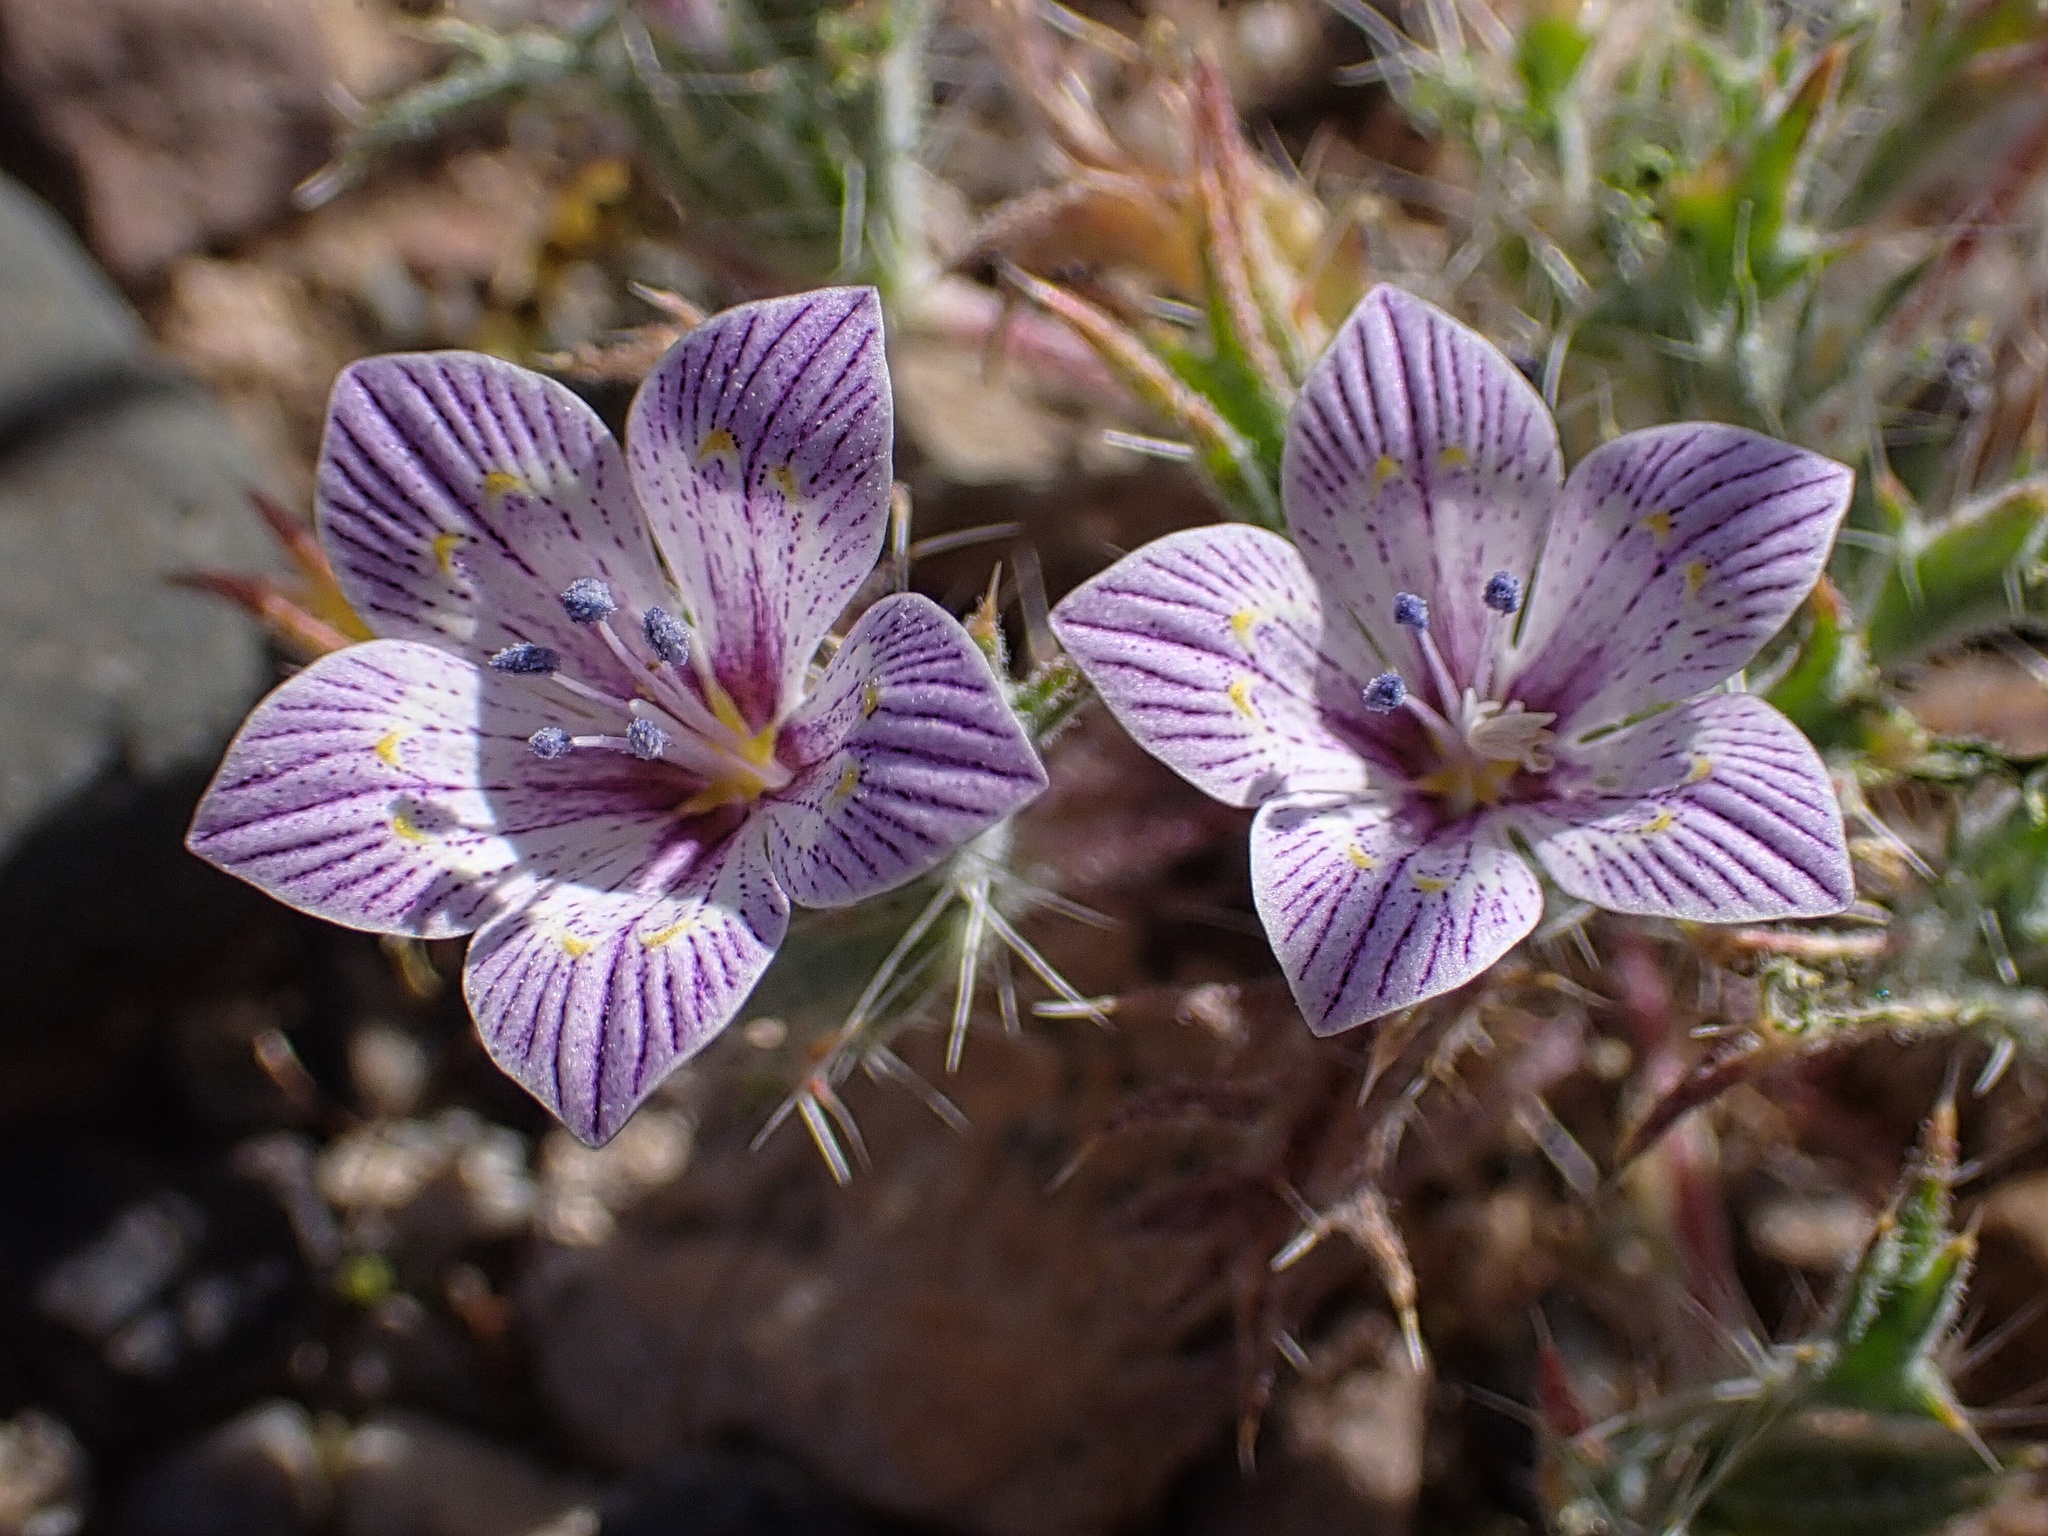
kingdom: Plantae
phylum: Tracheophyta
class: Magnoliopsida
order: Ericales
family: Polemoniaceae
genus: Langloisia
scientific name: Langloisia setosissima
